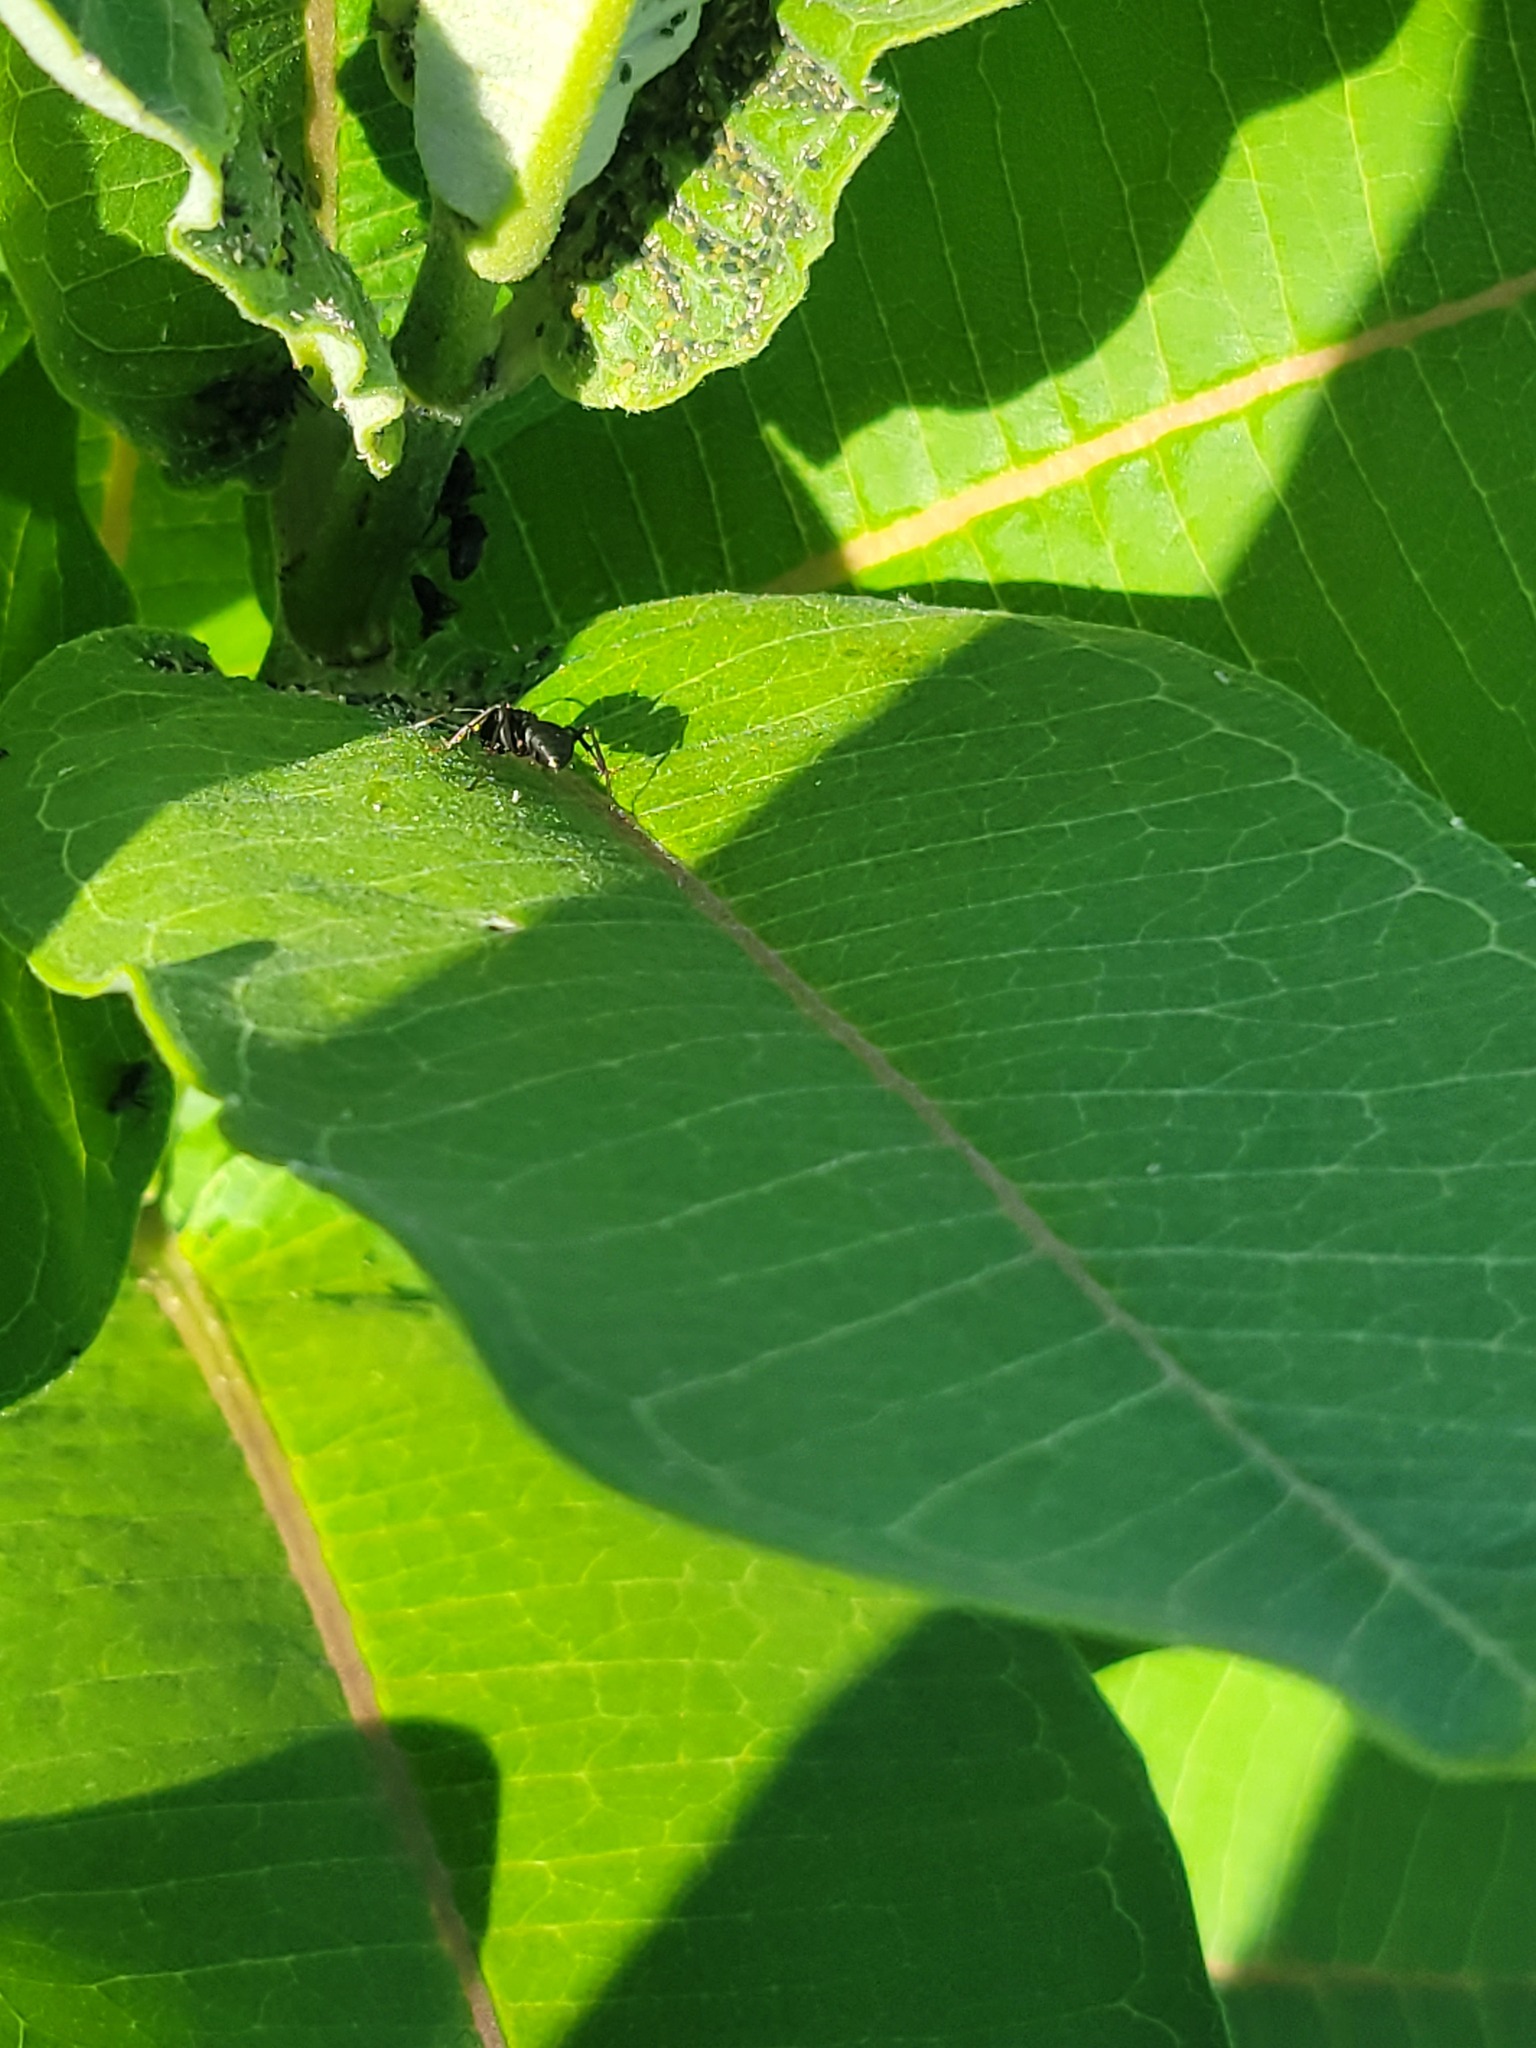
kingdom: Animalia
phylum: Arthropoda
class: Insecta
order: Hymenoptera
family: Formicidae
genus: Camponotus
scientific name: Camponotus pennsylvanicus
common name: Black carpenter ant
